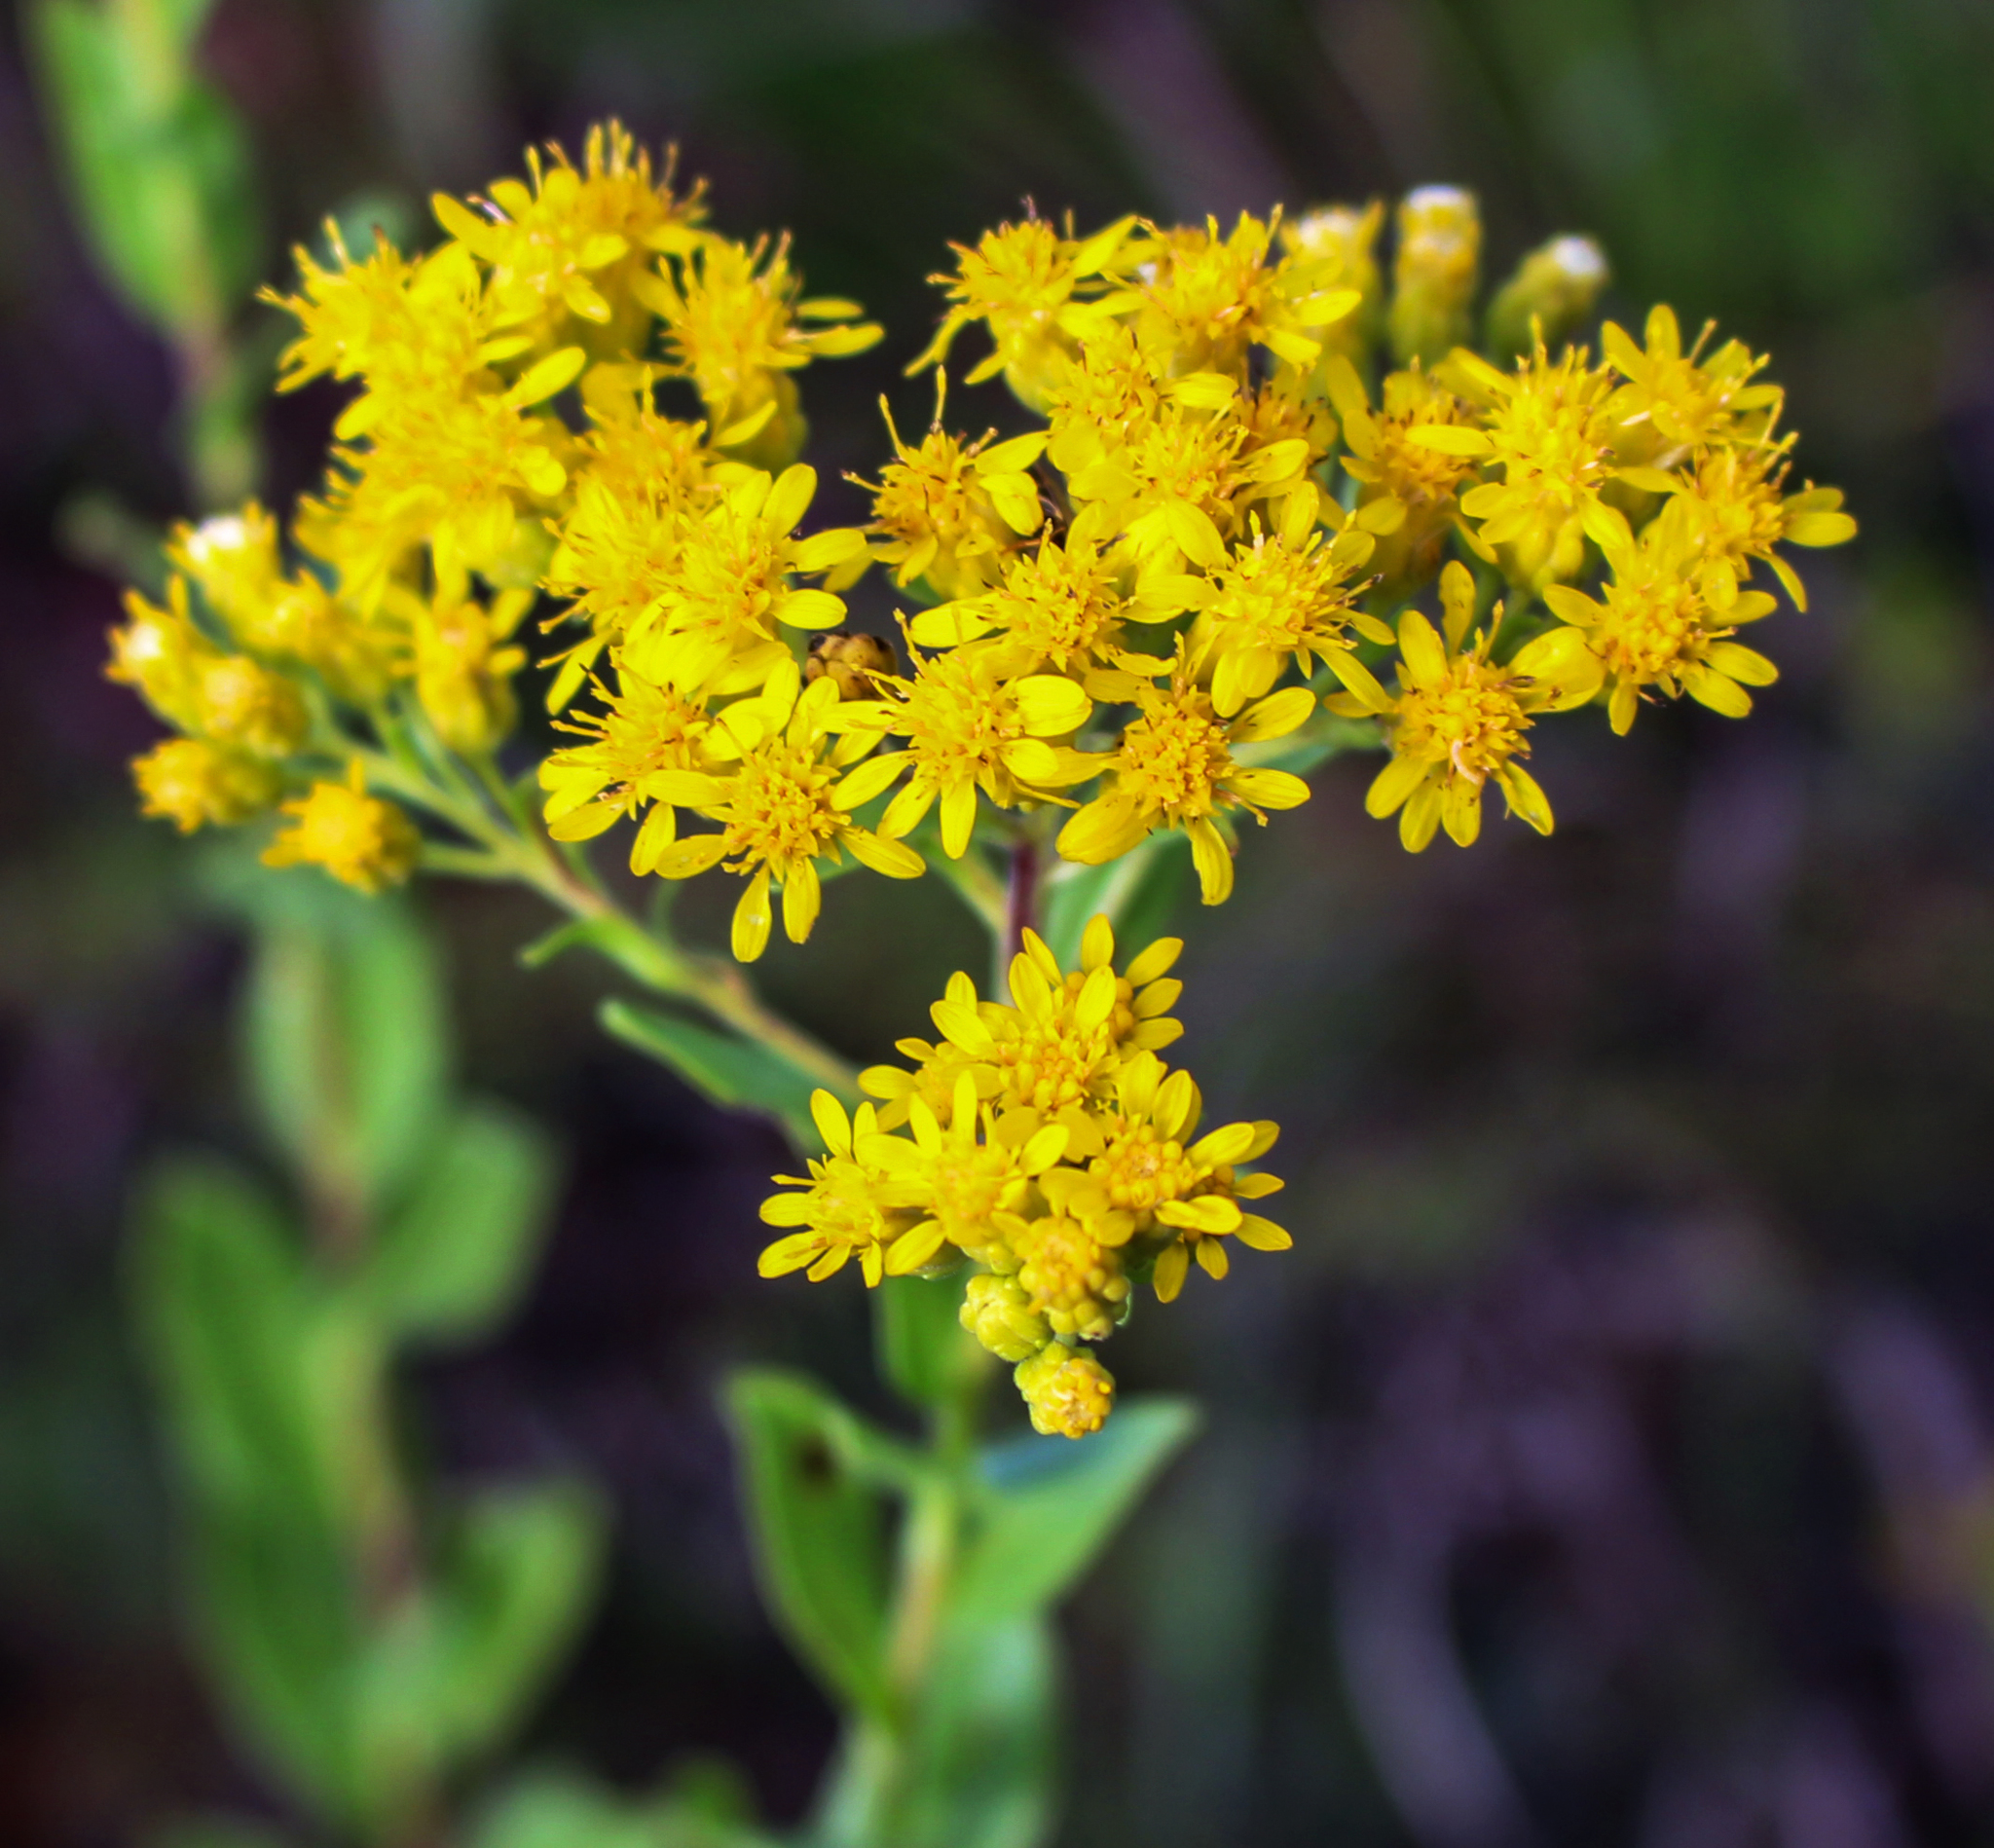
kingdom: Plantae
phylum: Tracheophyta
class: Magnoliopsida
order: Asterales
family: Asteraceae
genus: Solidago
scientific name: Solidago rigida
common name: Rigid goldenrod
